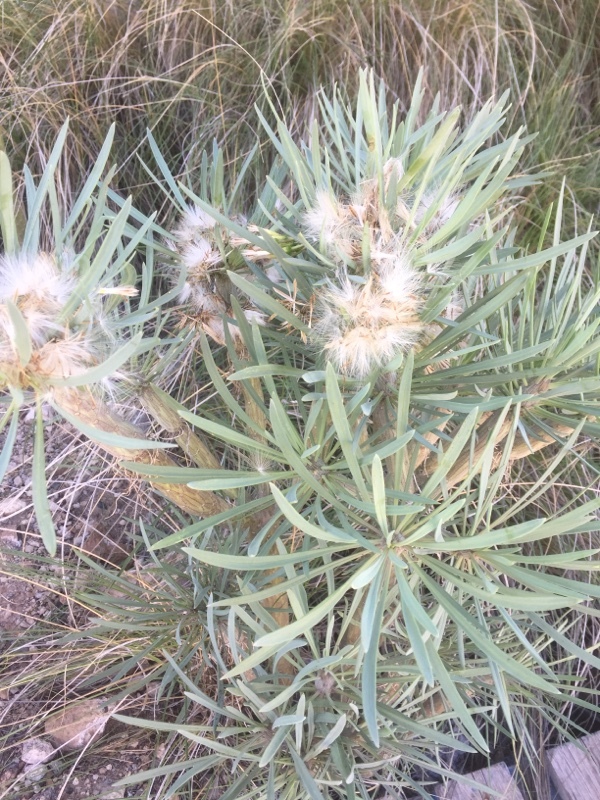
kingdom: Plantae
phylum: Tracheophyta
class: Magnoliopsida
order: Asterales
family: Asteraceae
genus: Kleinia
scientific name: Kleinia neriifolia
